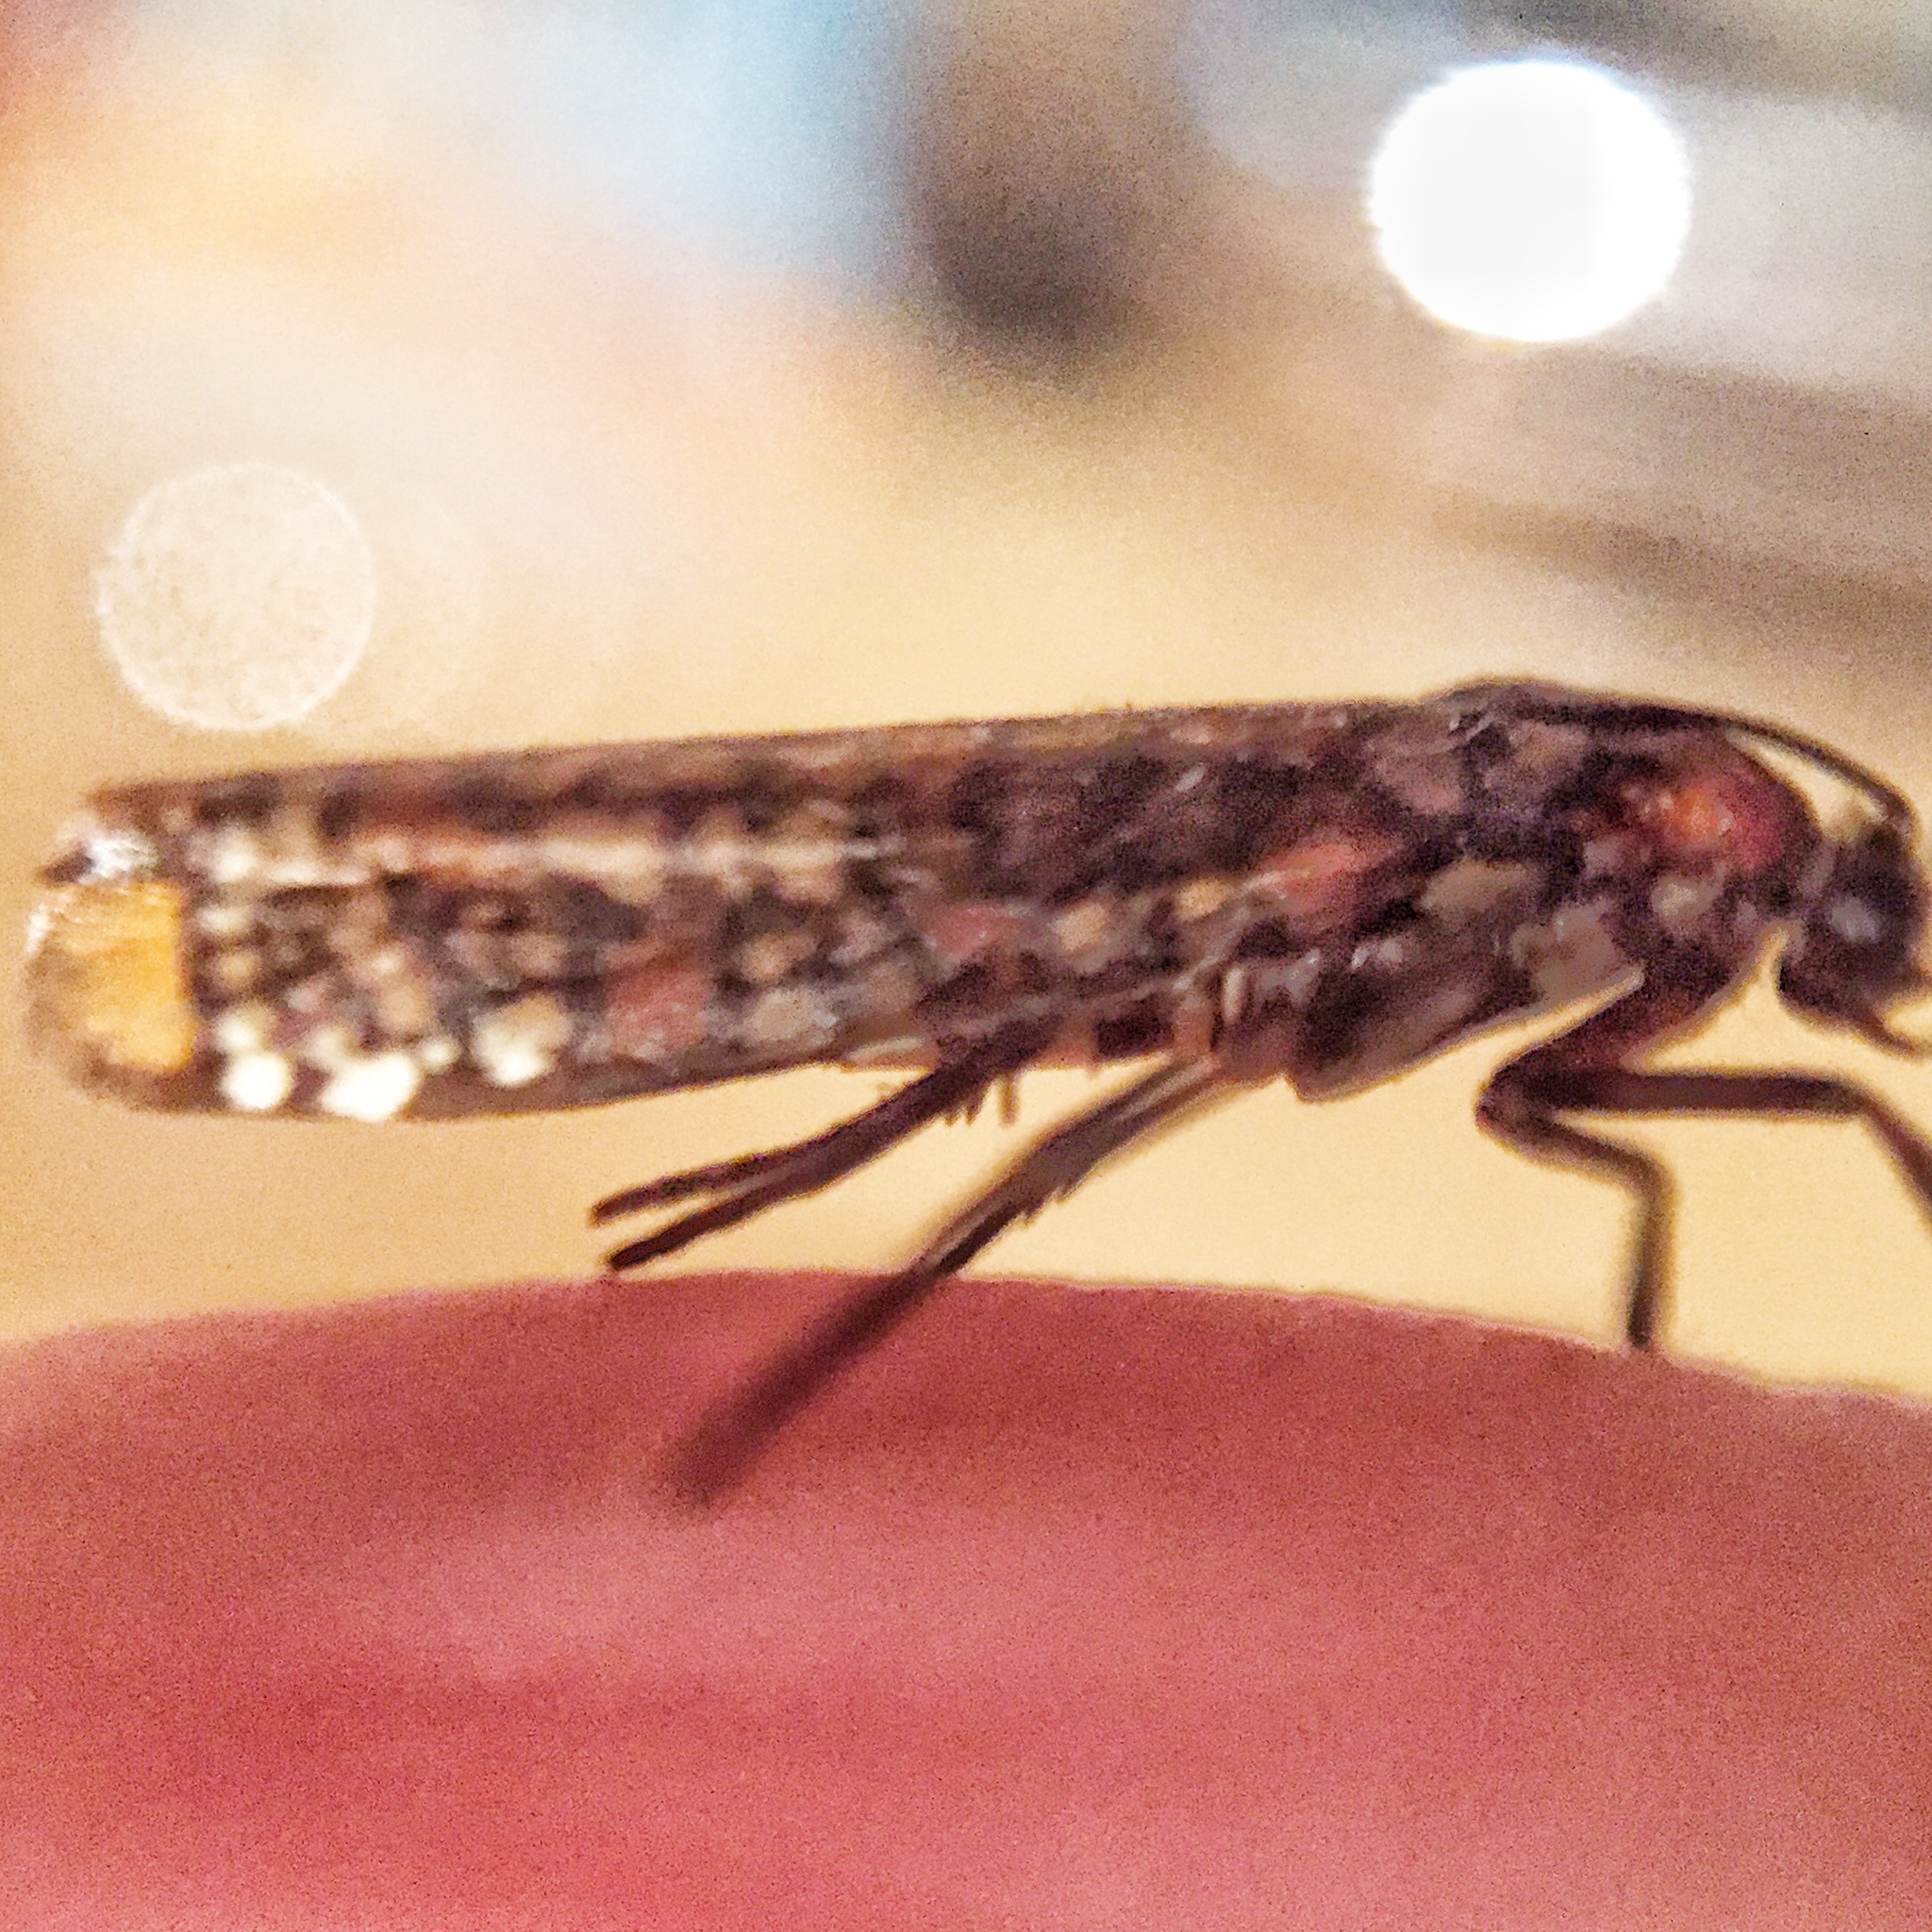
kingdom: Animalia
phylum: Arthropoda
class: Insecta
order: Lepidoptera
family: Attevidae
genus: Atteva
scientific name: Atteva punctella
